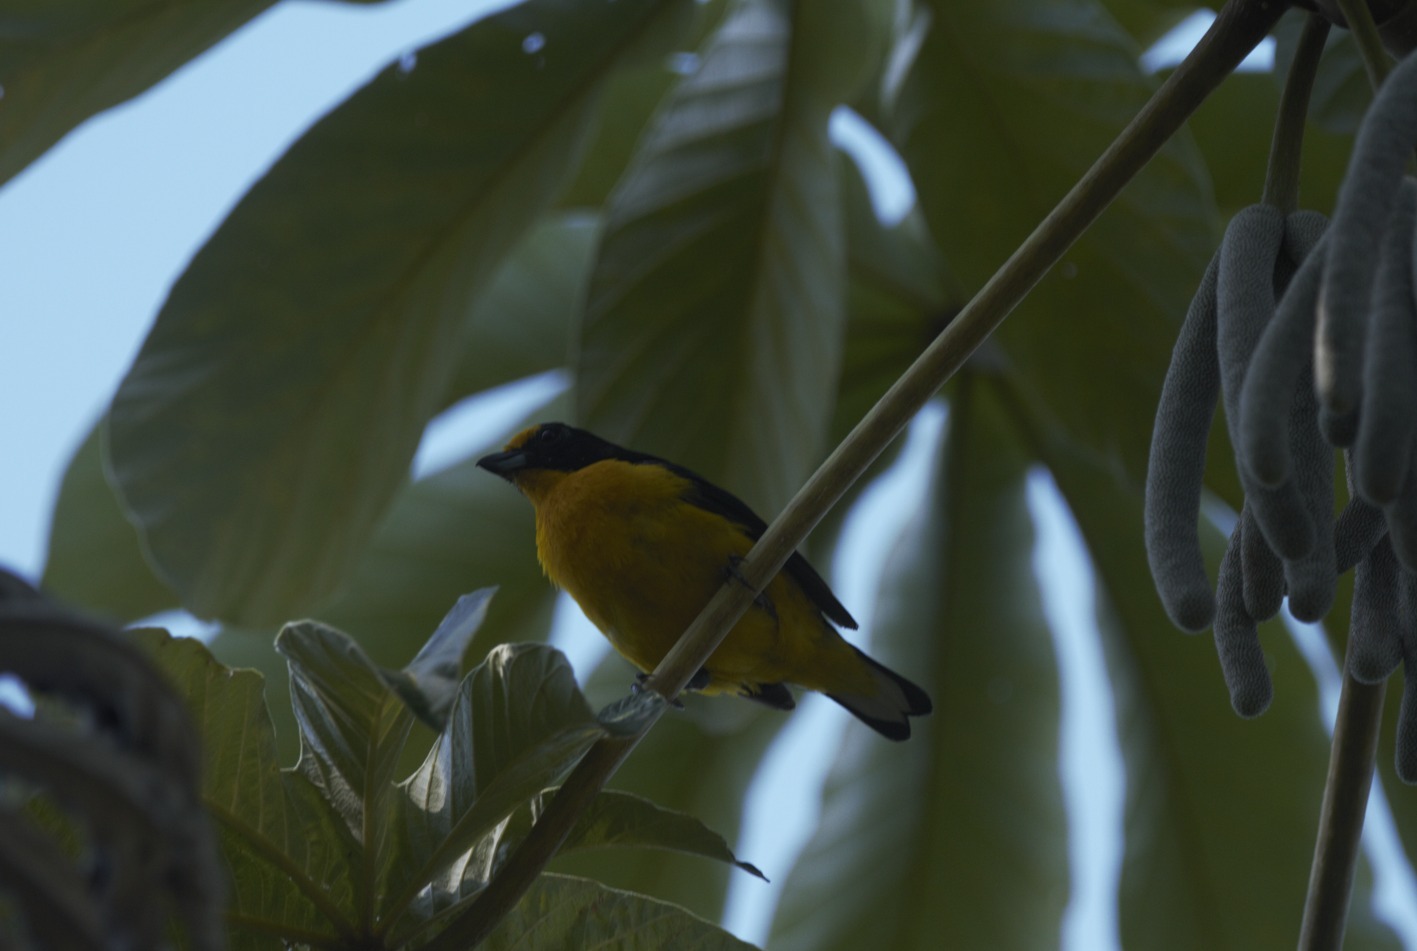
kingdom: Animalia
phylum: Chordata
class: Aves
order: Passeriformes
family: Fringillidae
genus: Euphonia
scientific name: Euphonia violacea
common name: Violaceous euphonia
